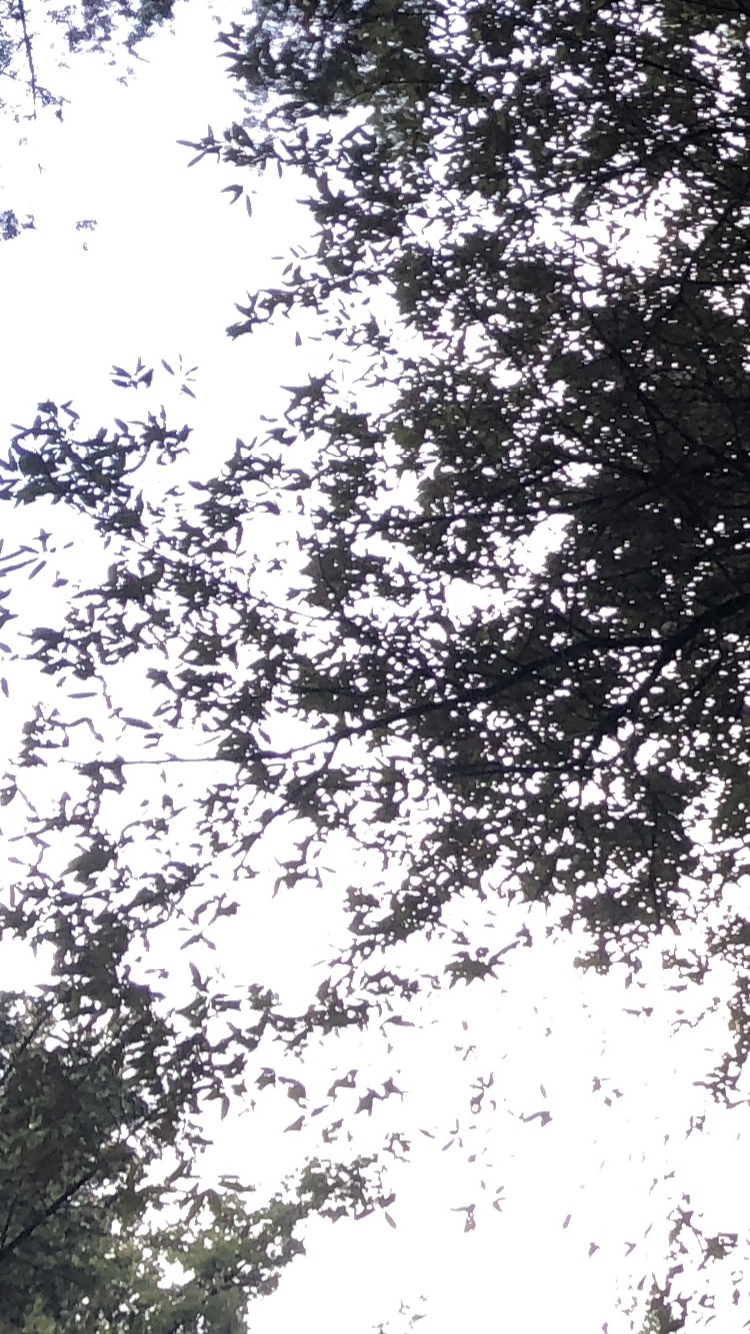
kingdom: Plantae
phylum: Tracheophyta
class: Magnoliopsida
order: Fagales
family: Fagaceae
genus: Chrysolepis
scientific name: Chrysolepis chrysophylla
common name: Giant chinquapin
